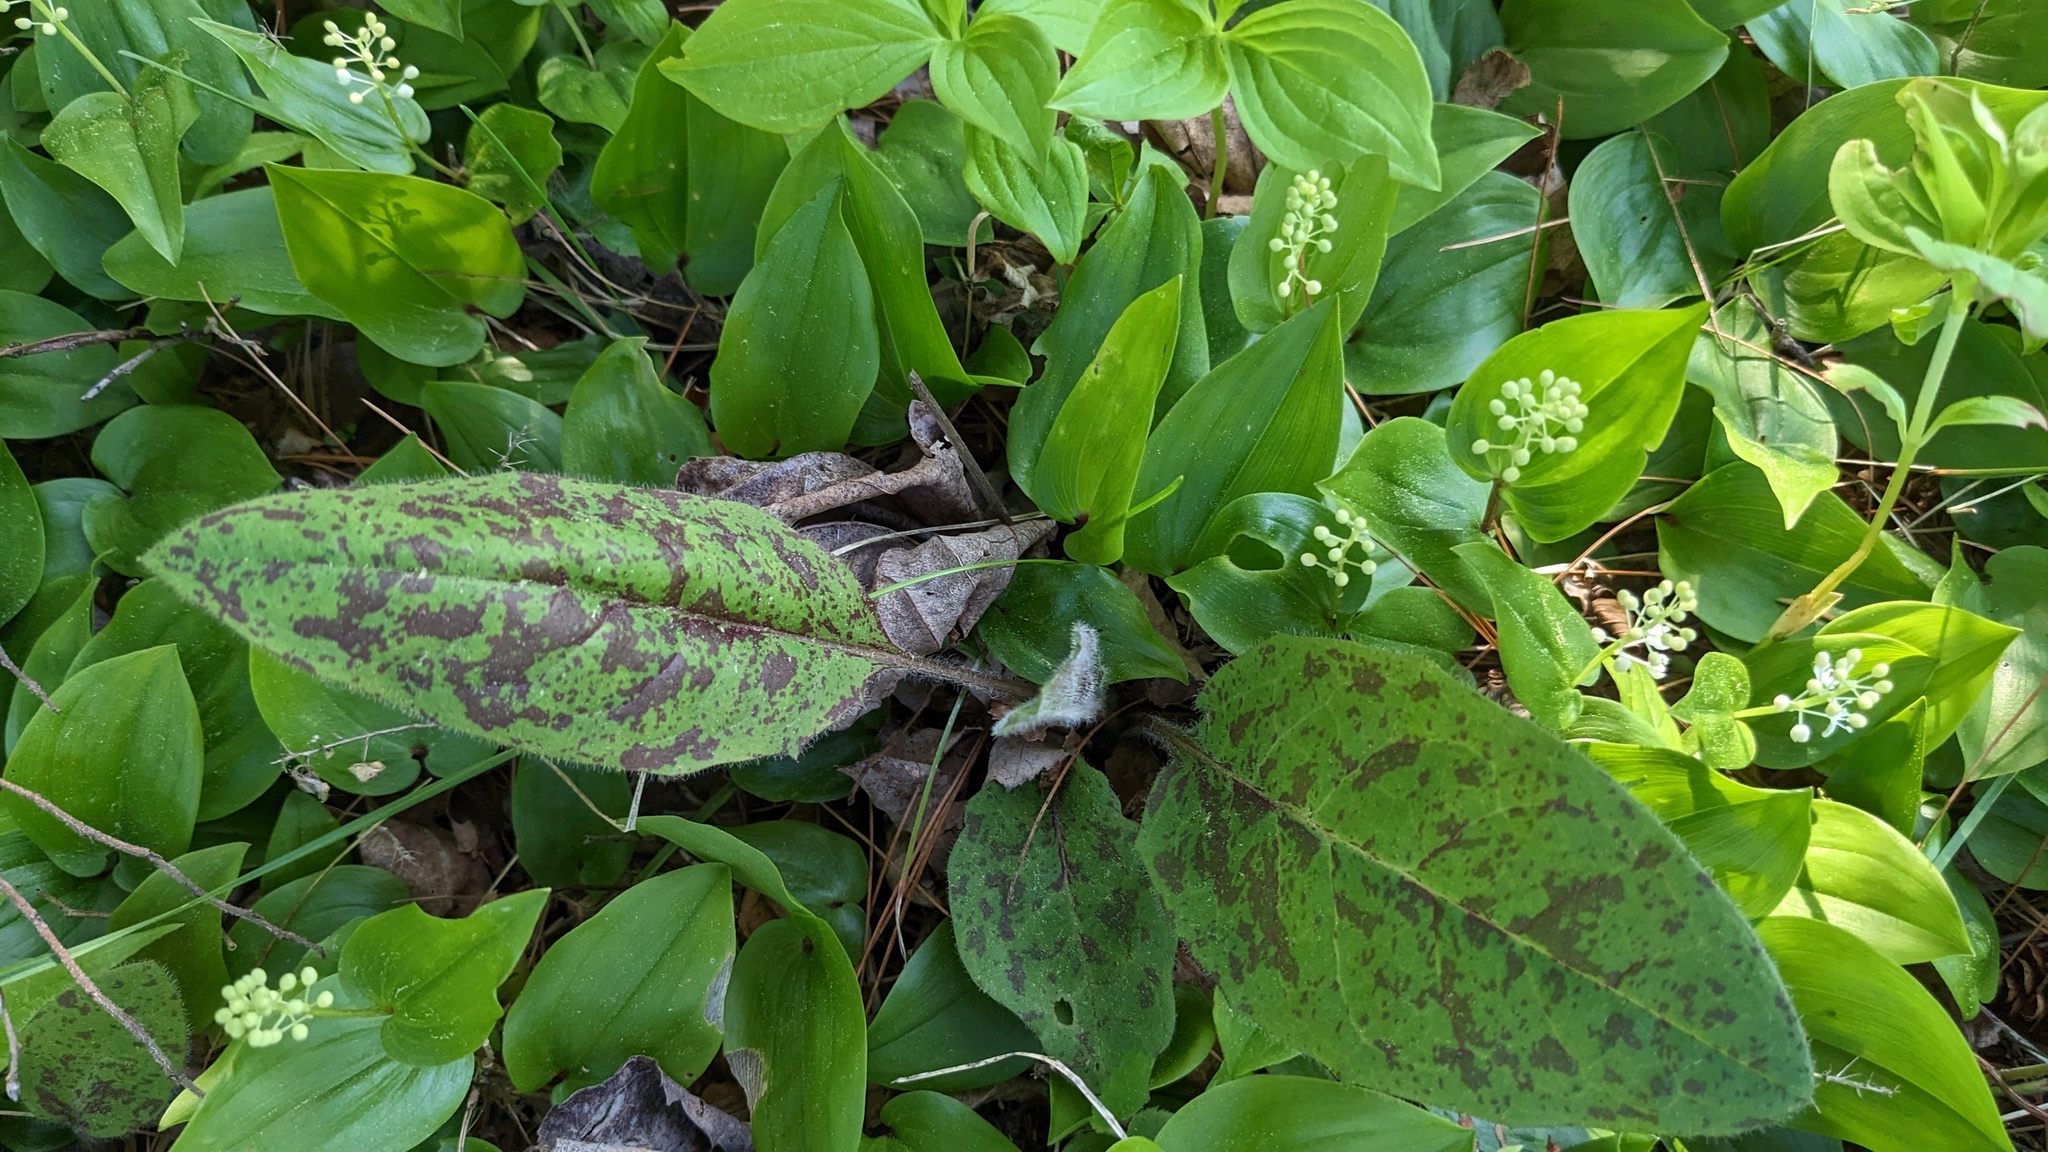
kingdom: Plantae
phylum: Tracheophyta
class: Magnoliopsida
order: Asterales
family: Asteraceae
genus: Hieracium
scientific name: Hieracium maculatum
